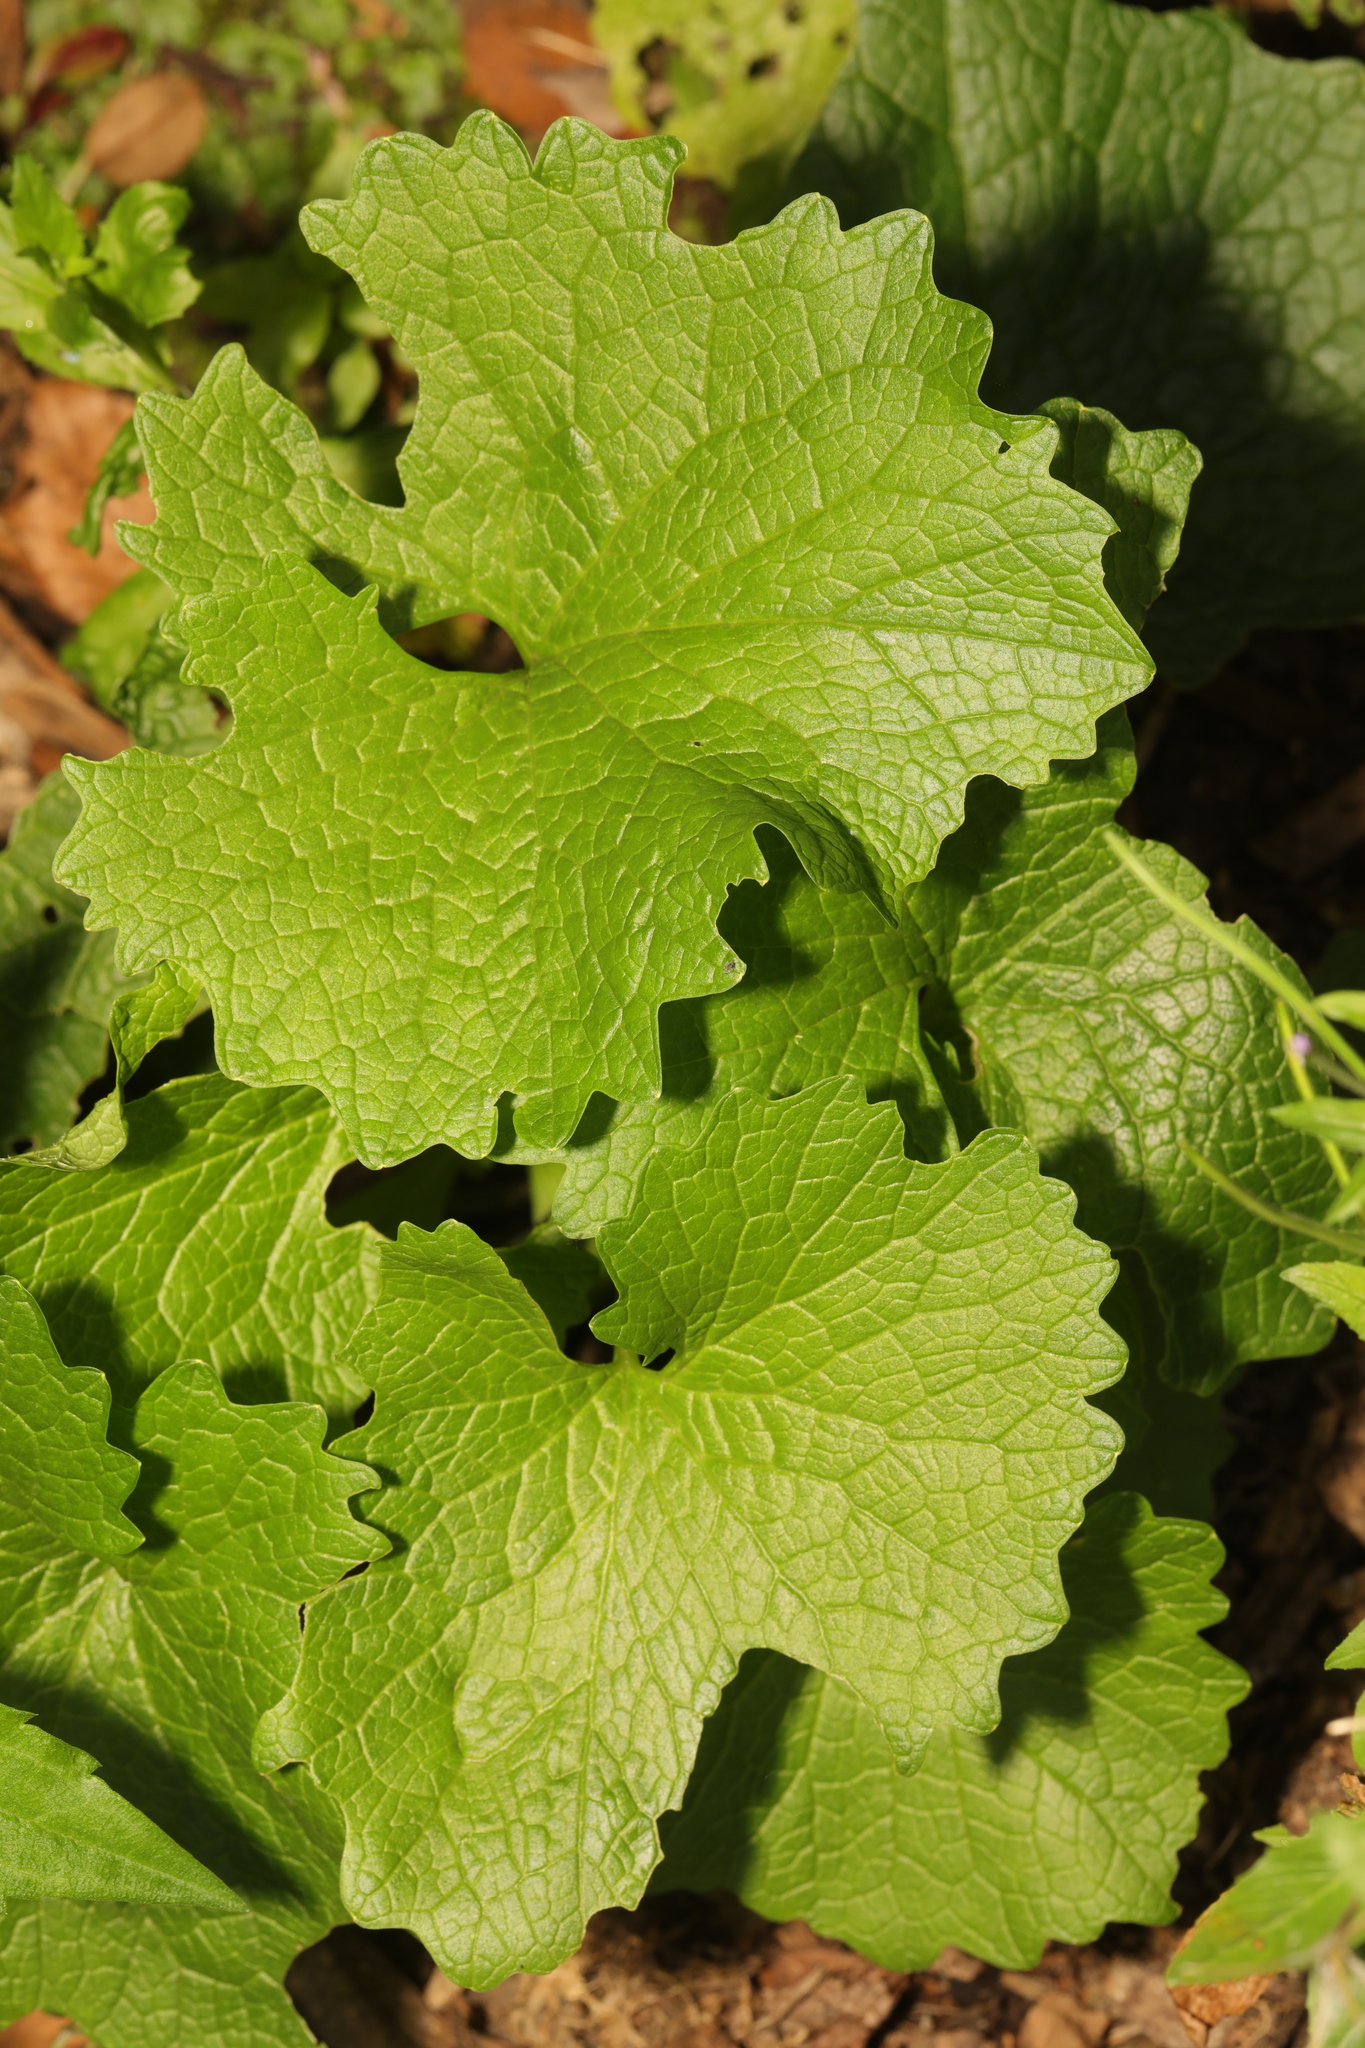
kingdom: Plantae
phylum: Tracheophyta
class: Magnoliopsida
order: Brassicales
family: Brassicaceae
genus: Alliaria
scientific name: Alliaria petiolata
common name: Garlic mustard
